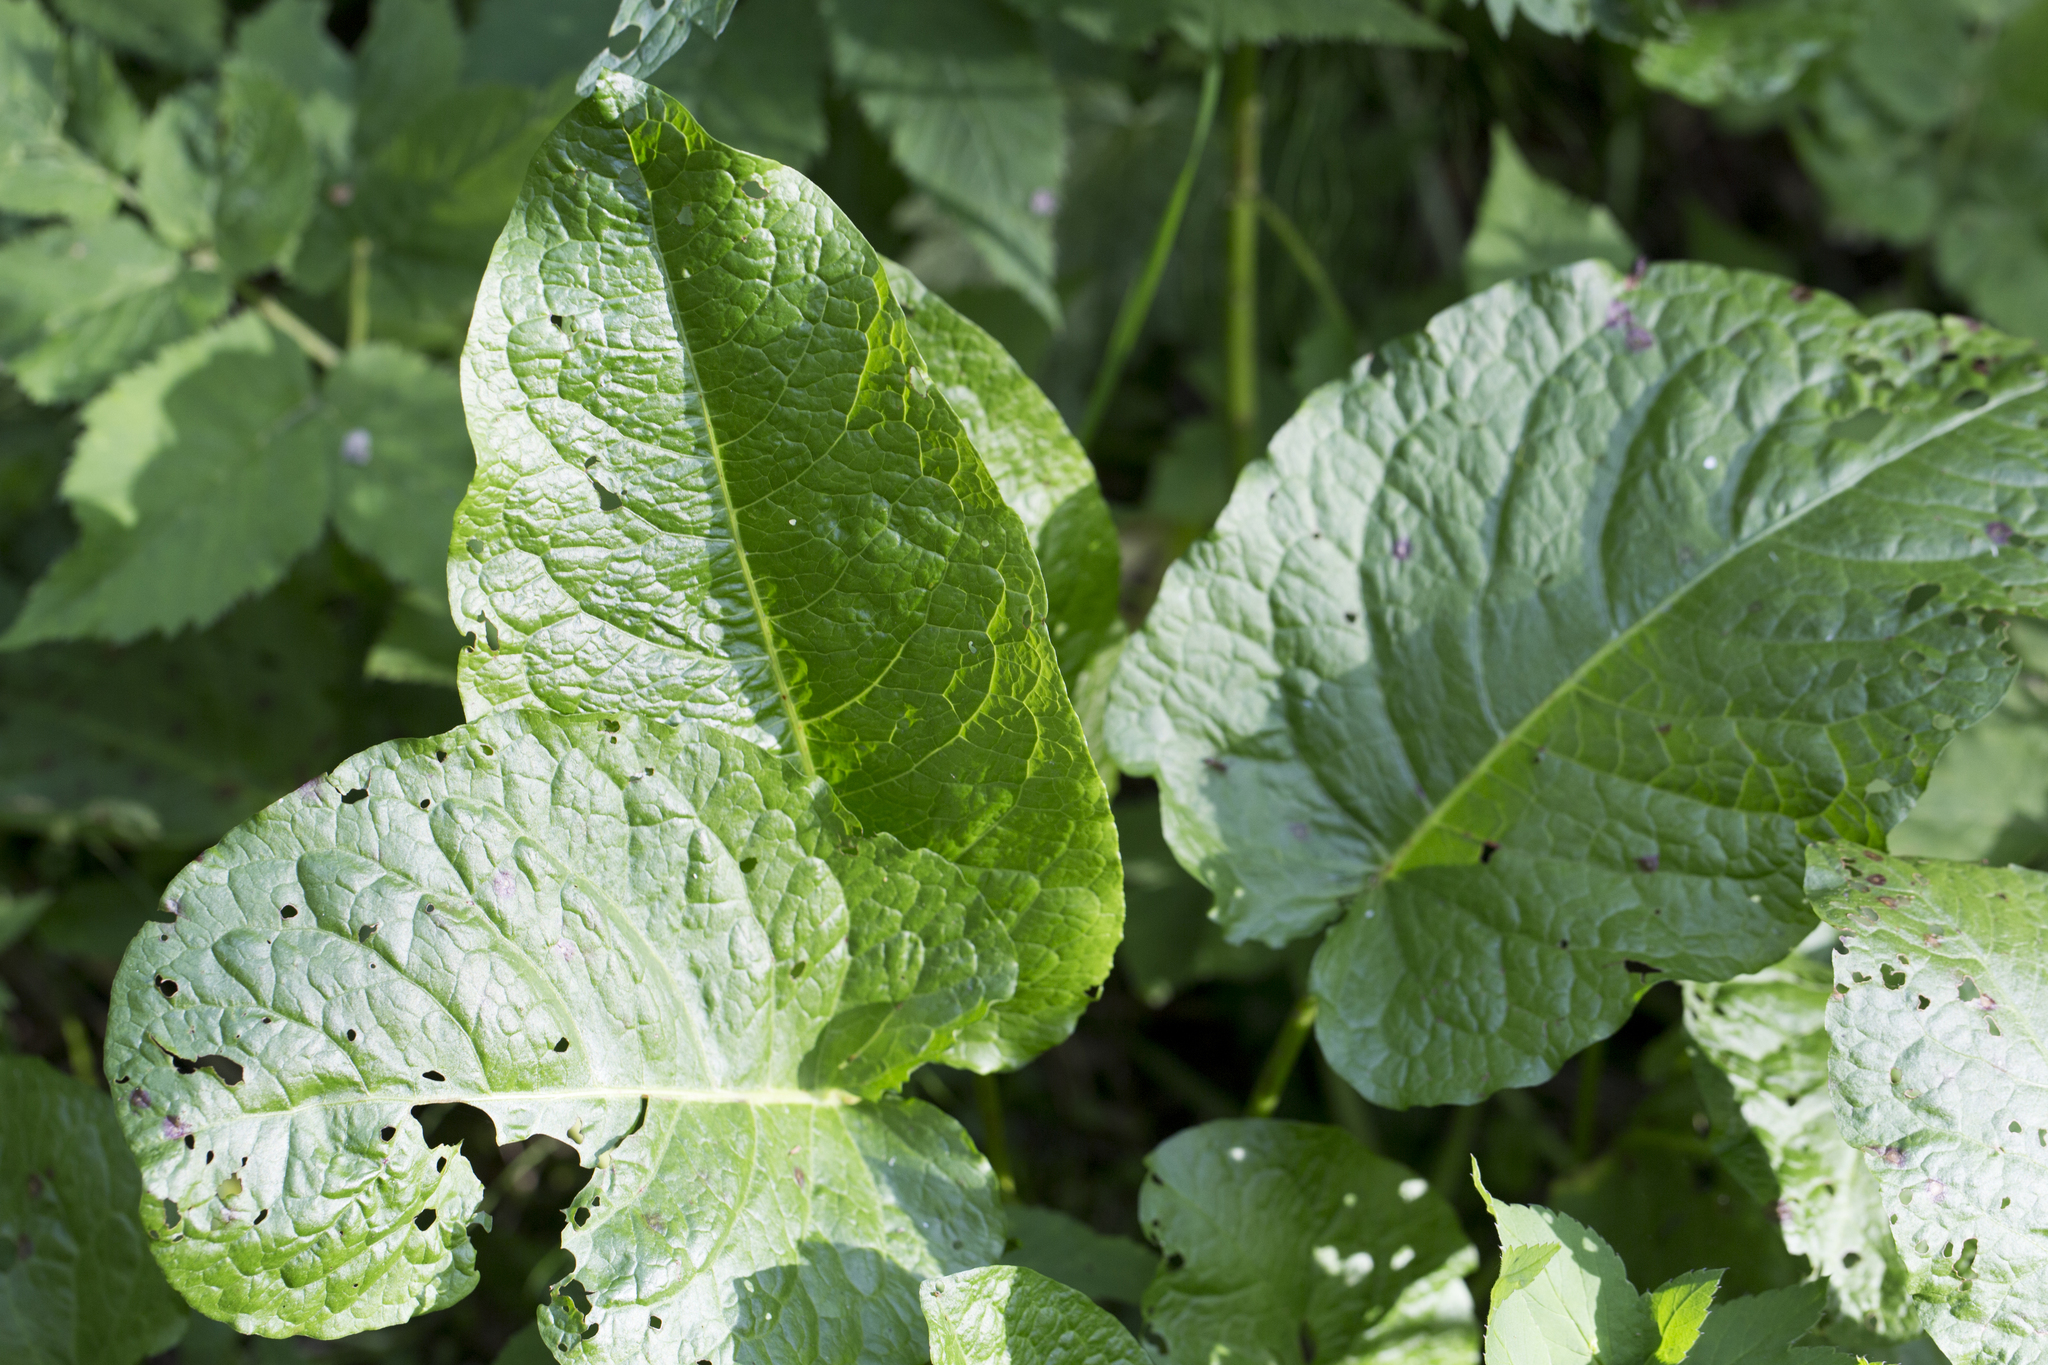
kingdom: Plantae
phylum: Tracheophyta
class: Magnoliopsida
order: Caryophyllales
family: Polygonaceae
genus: Rumex
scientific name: Rumex obtusifolius
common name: Bitter dock
